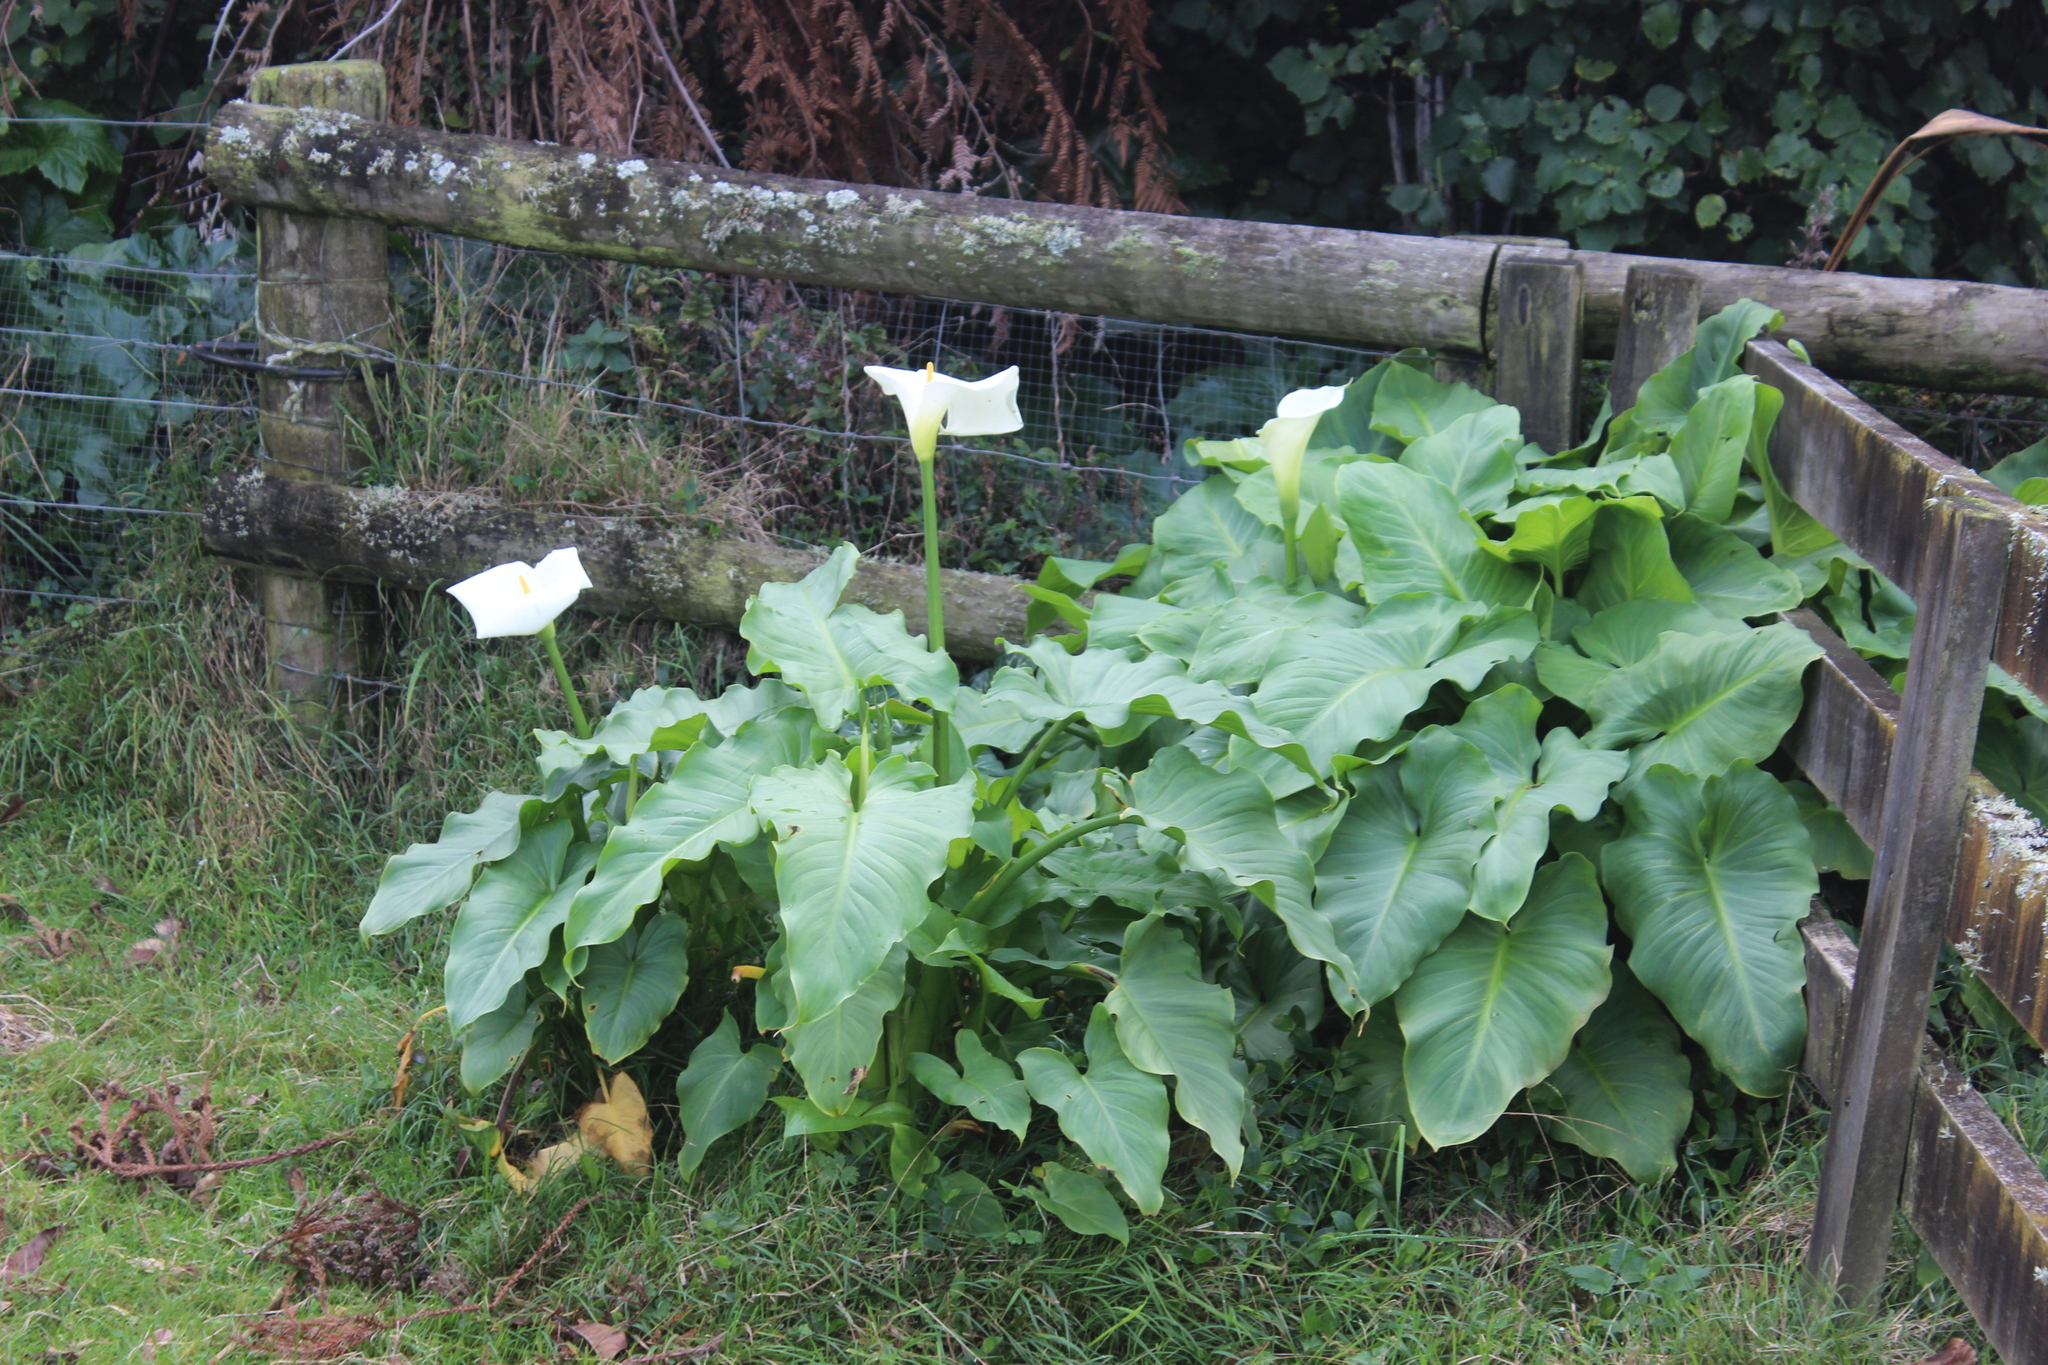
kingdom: Plantae
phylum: Tracheophyta
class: Liliopsida
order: Alismatales
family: Araceae
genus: Zantedeschia
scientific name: Zantedeschia aethiopica
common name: Altar-lily
